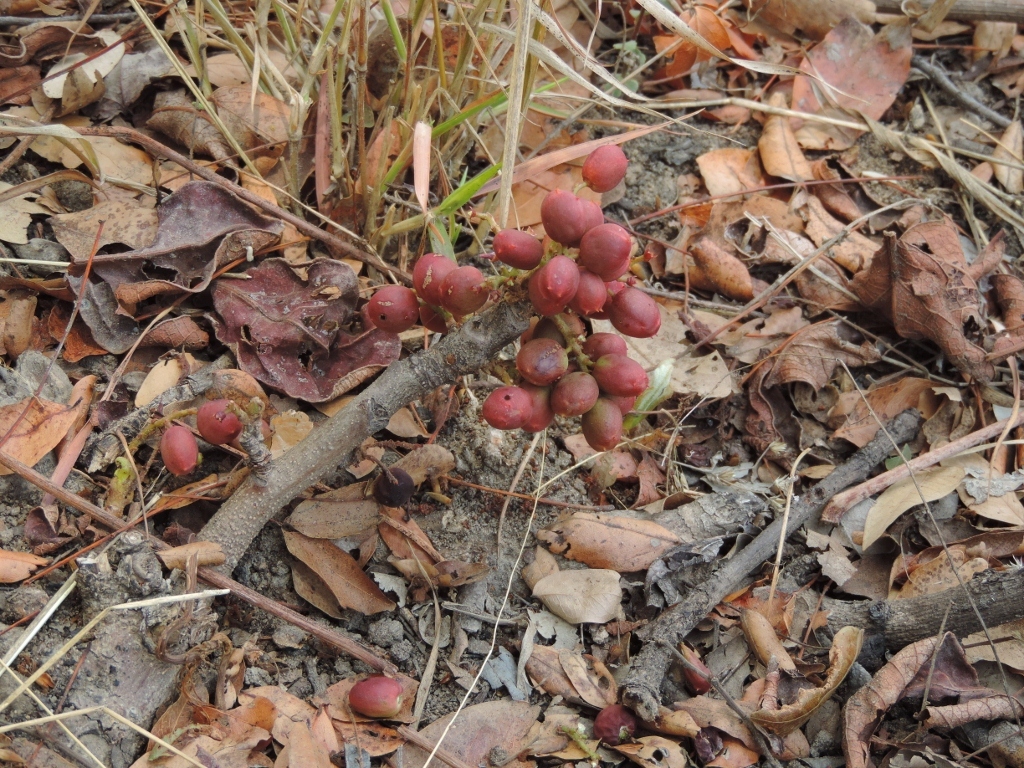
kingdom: Plantae
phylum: Tracheophyta
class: Magnoliopsida
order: Sapindales
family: Anacardiaceae
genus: Lannea
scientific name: Lannea edulis
